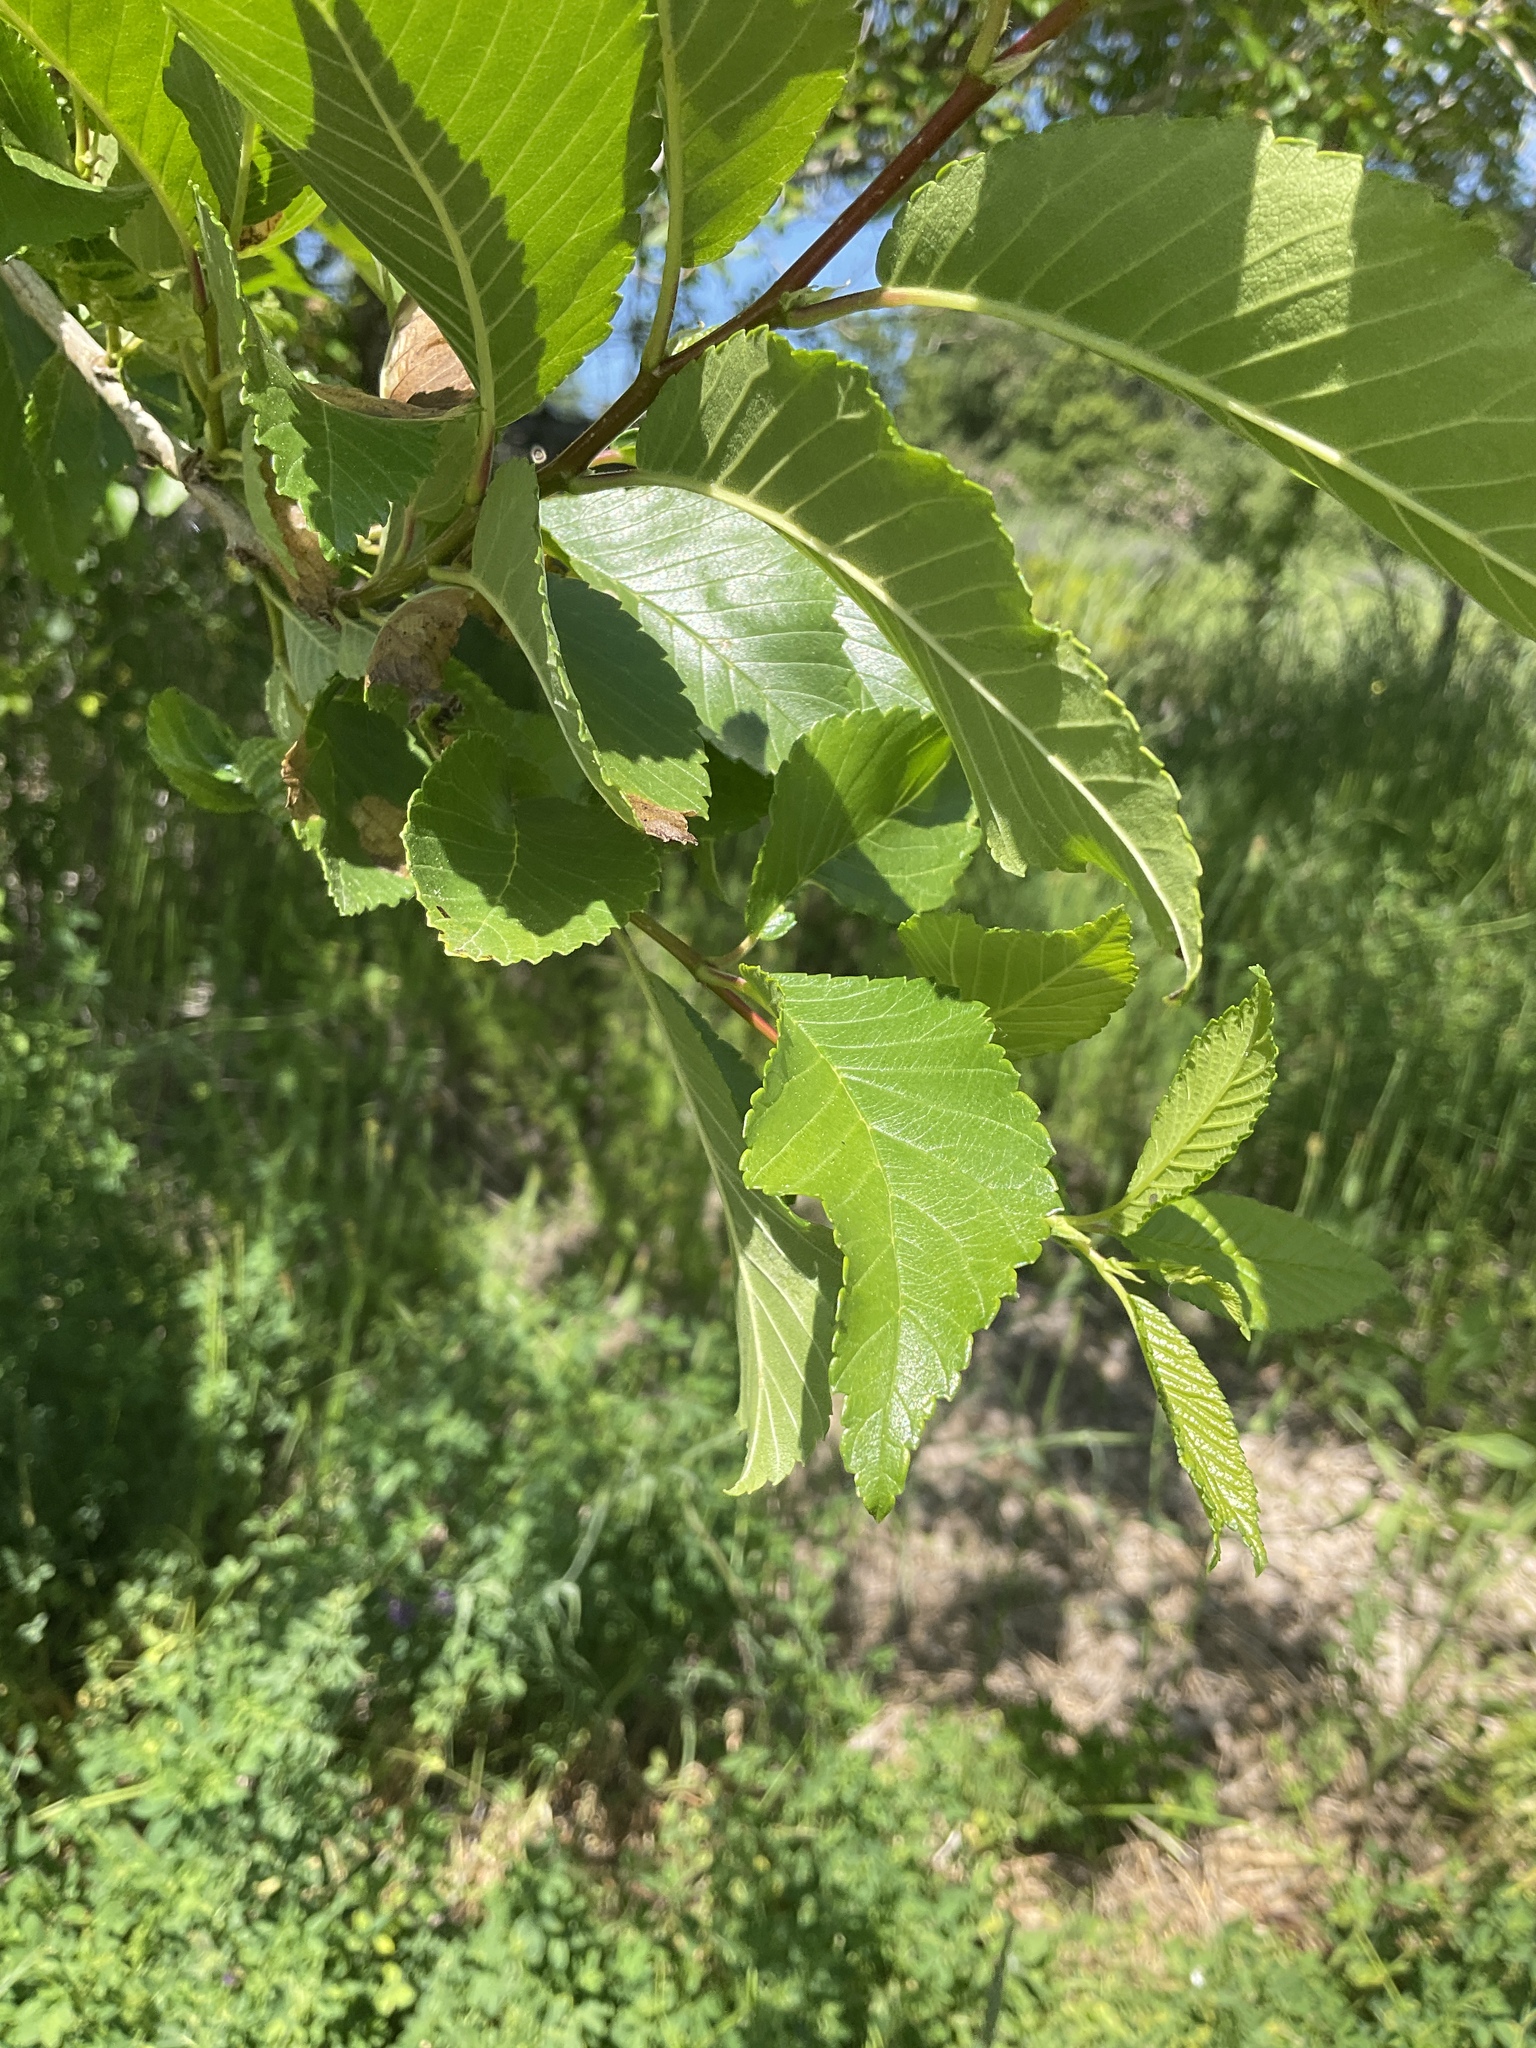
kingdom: Plantae
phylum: Tracheophyta
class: Magnoliopsida
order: Rosales
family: Ulmaceae
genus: Ulmus
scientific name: Ulmus pumila
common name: Siberian elm
